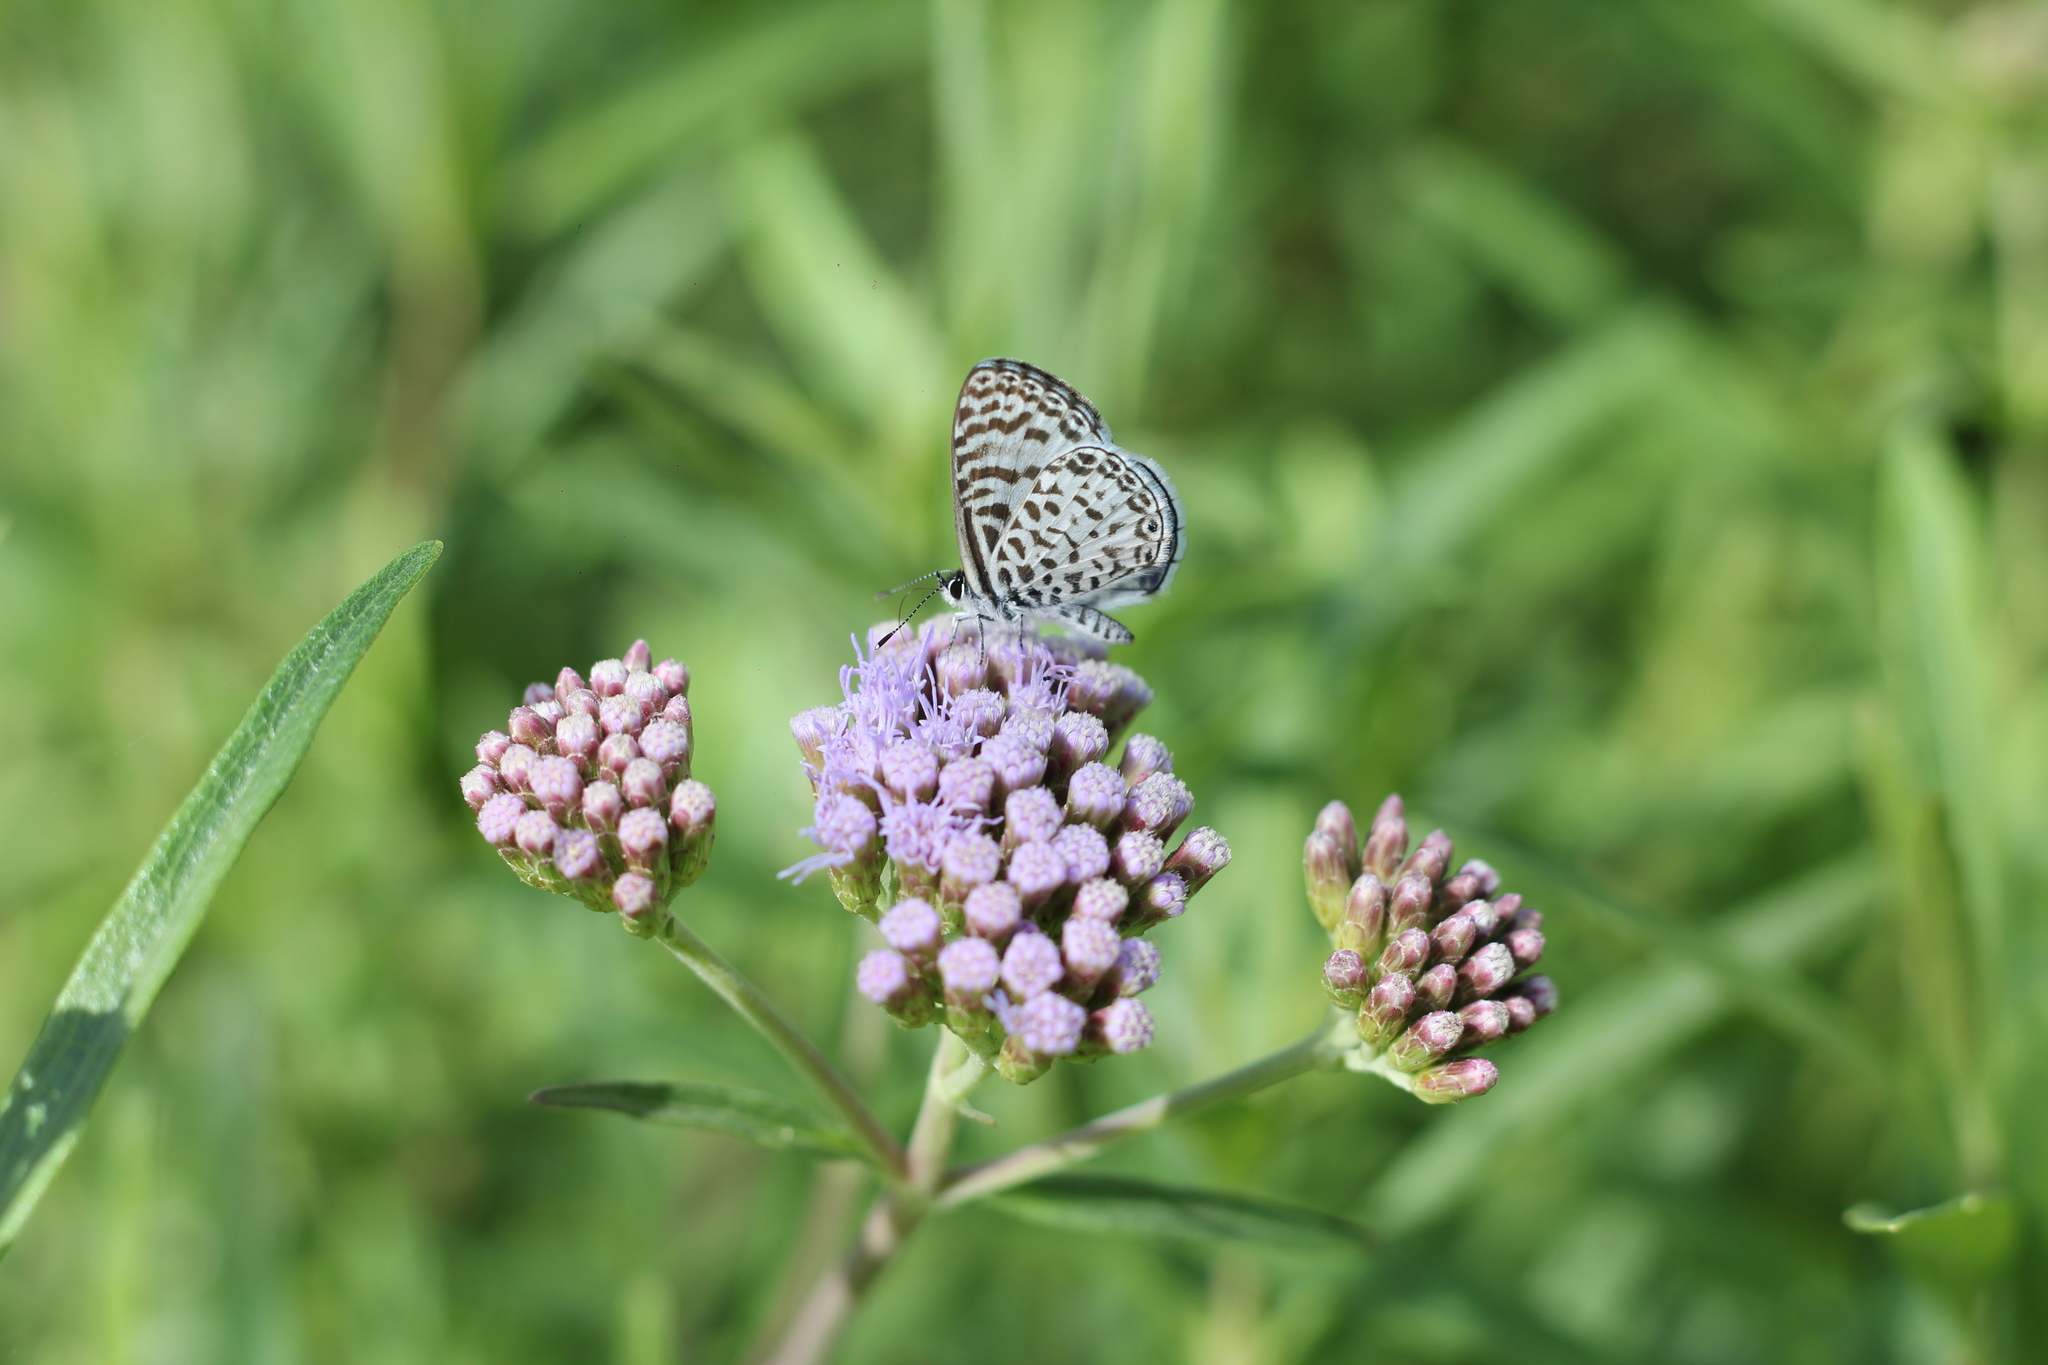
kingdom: Animalia
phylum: Arthropoda
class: Insecta
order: Lepidoptera
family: Lycaenidae
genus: Leptotes
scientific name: Leptotes cassius
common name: Cassius blue
